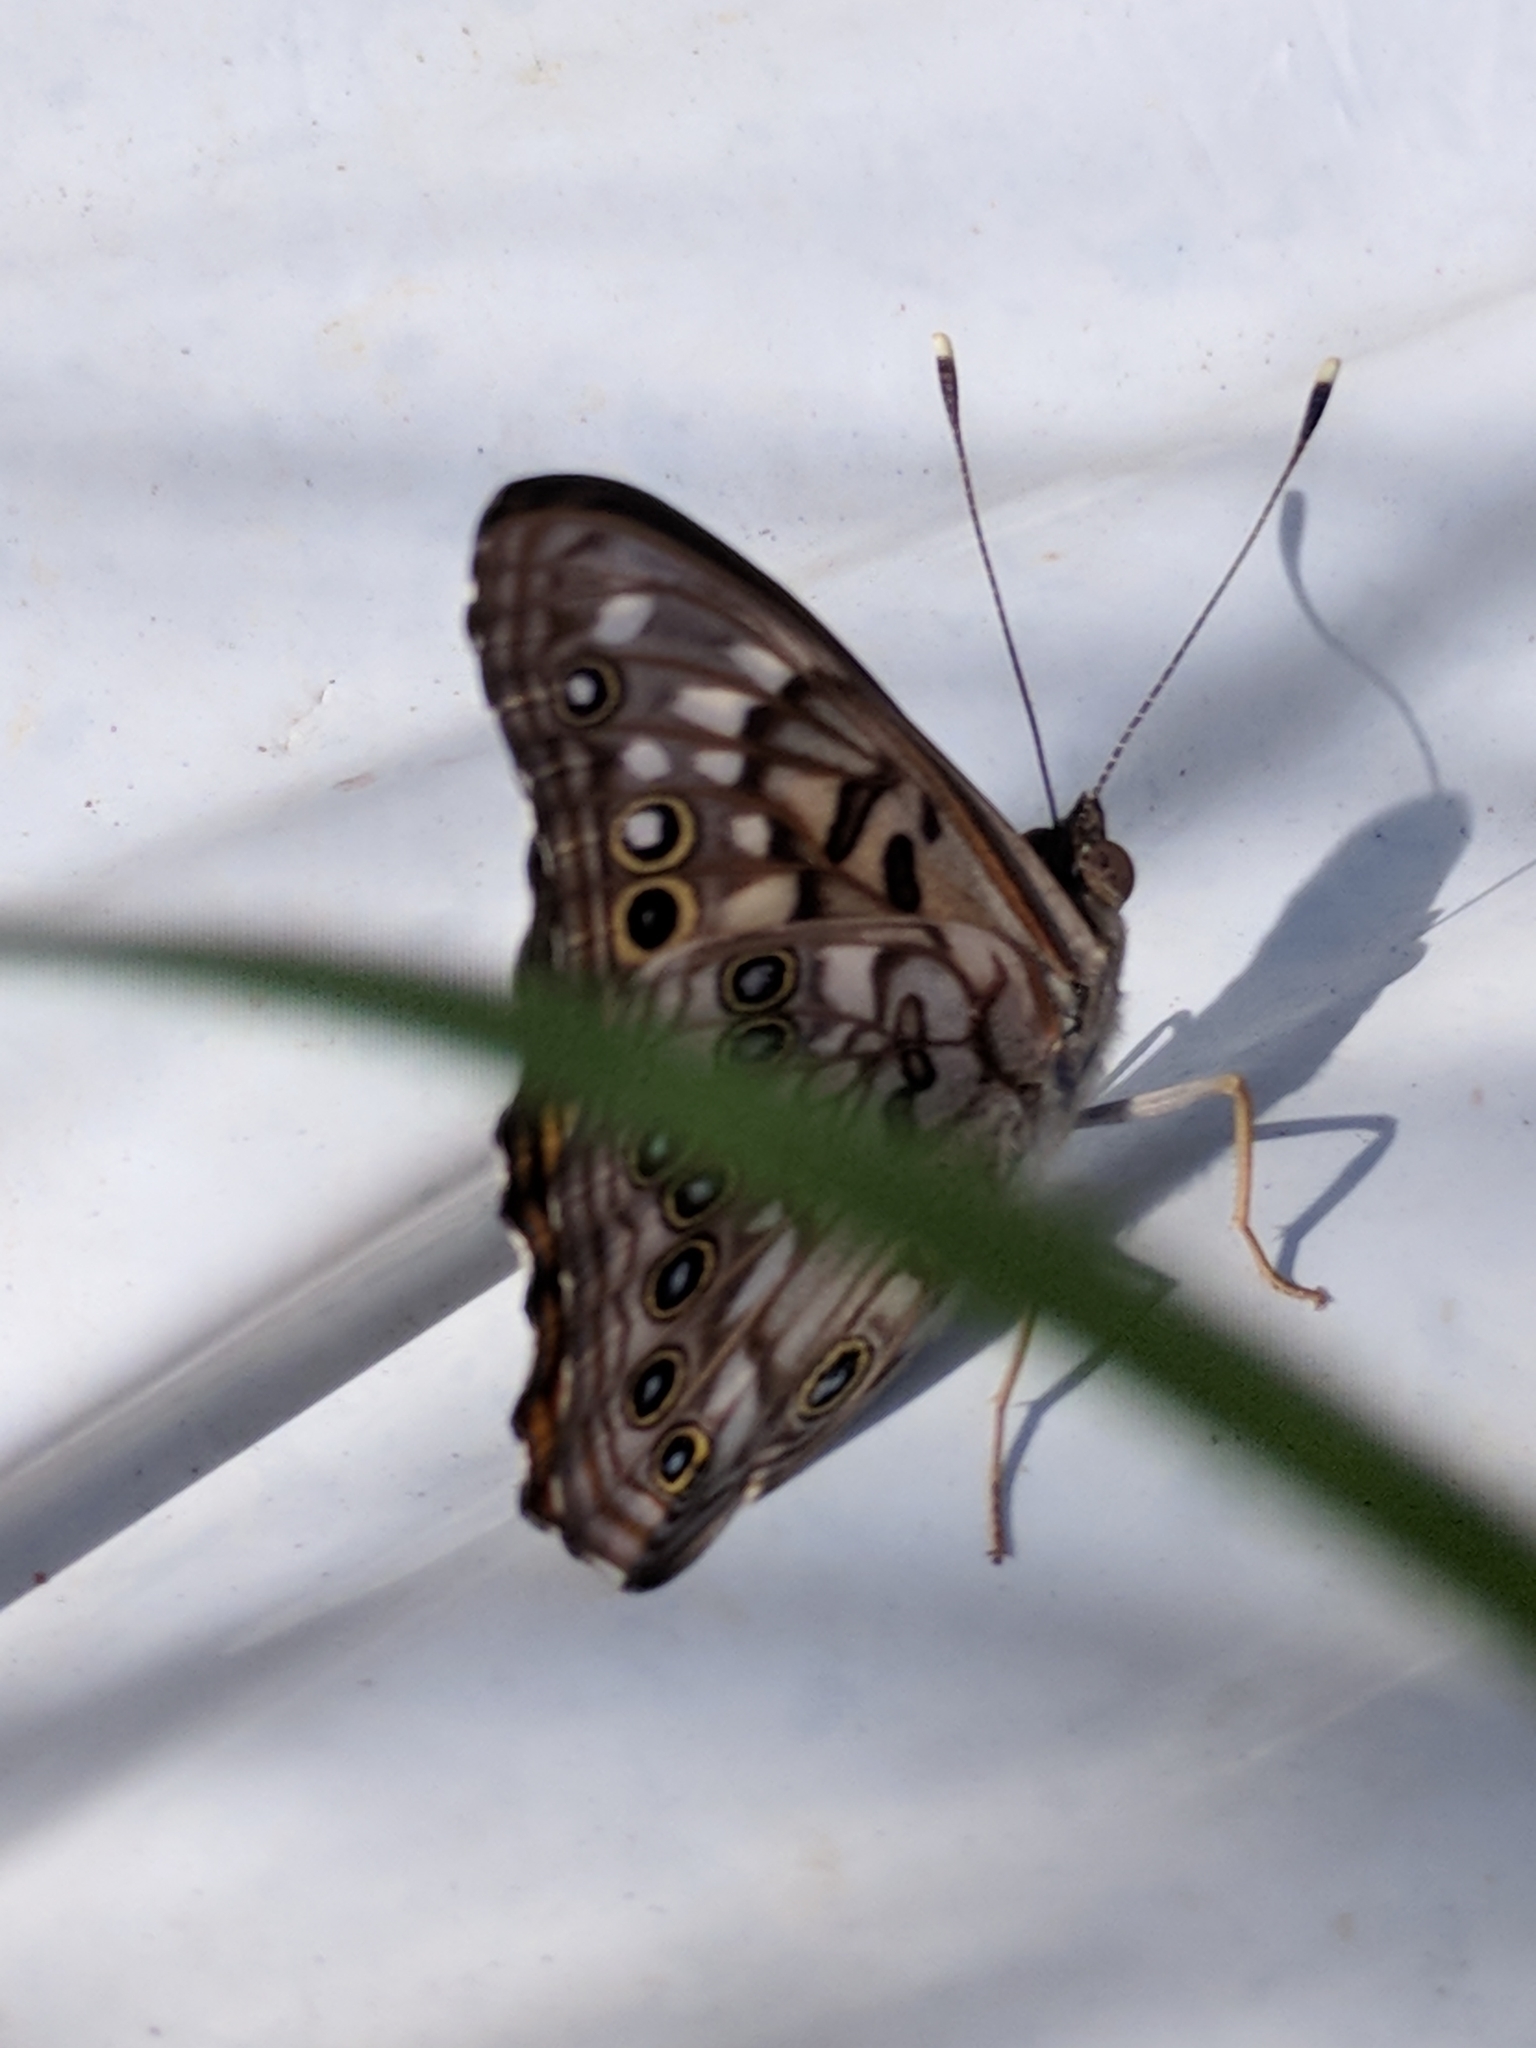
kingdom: Animalia
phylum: Arthropoda
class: Insecta
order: Lepidoptera
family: Nymphalidae
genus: Asterocampa
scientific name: Asterocampa celtis
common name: Hackberry emperor
